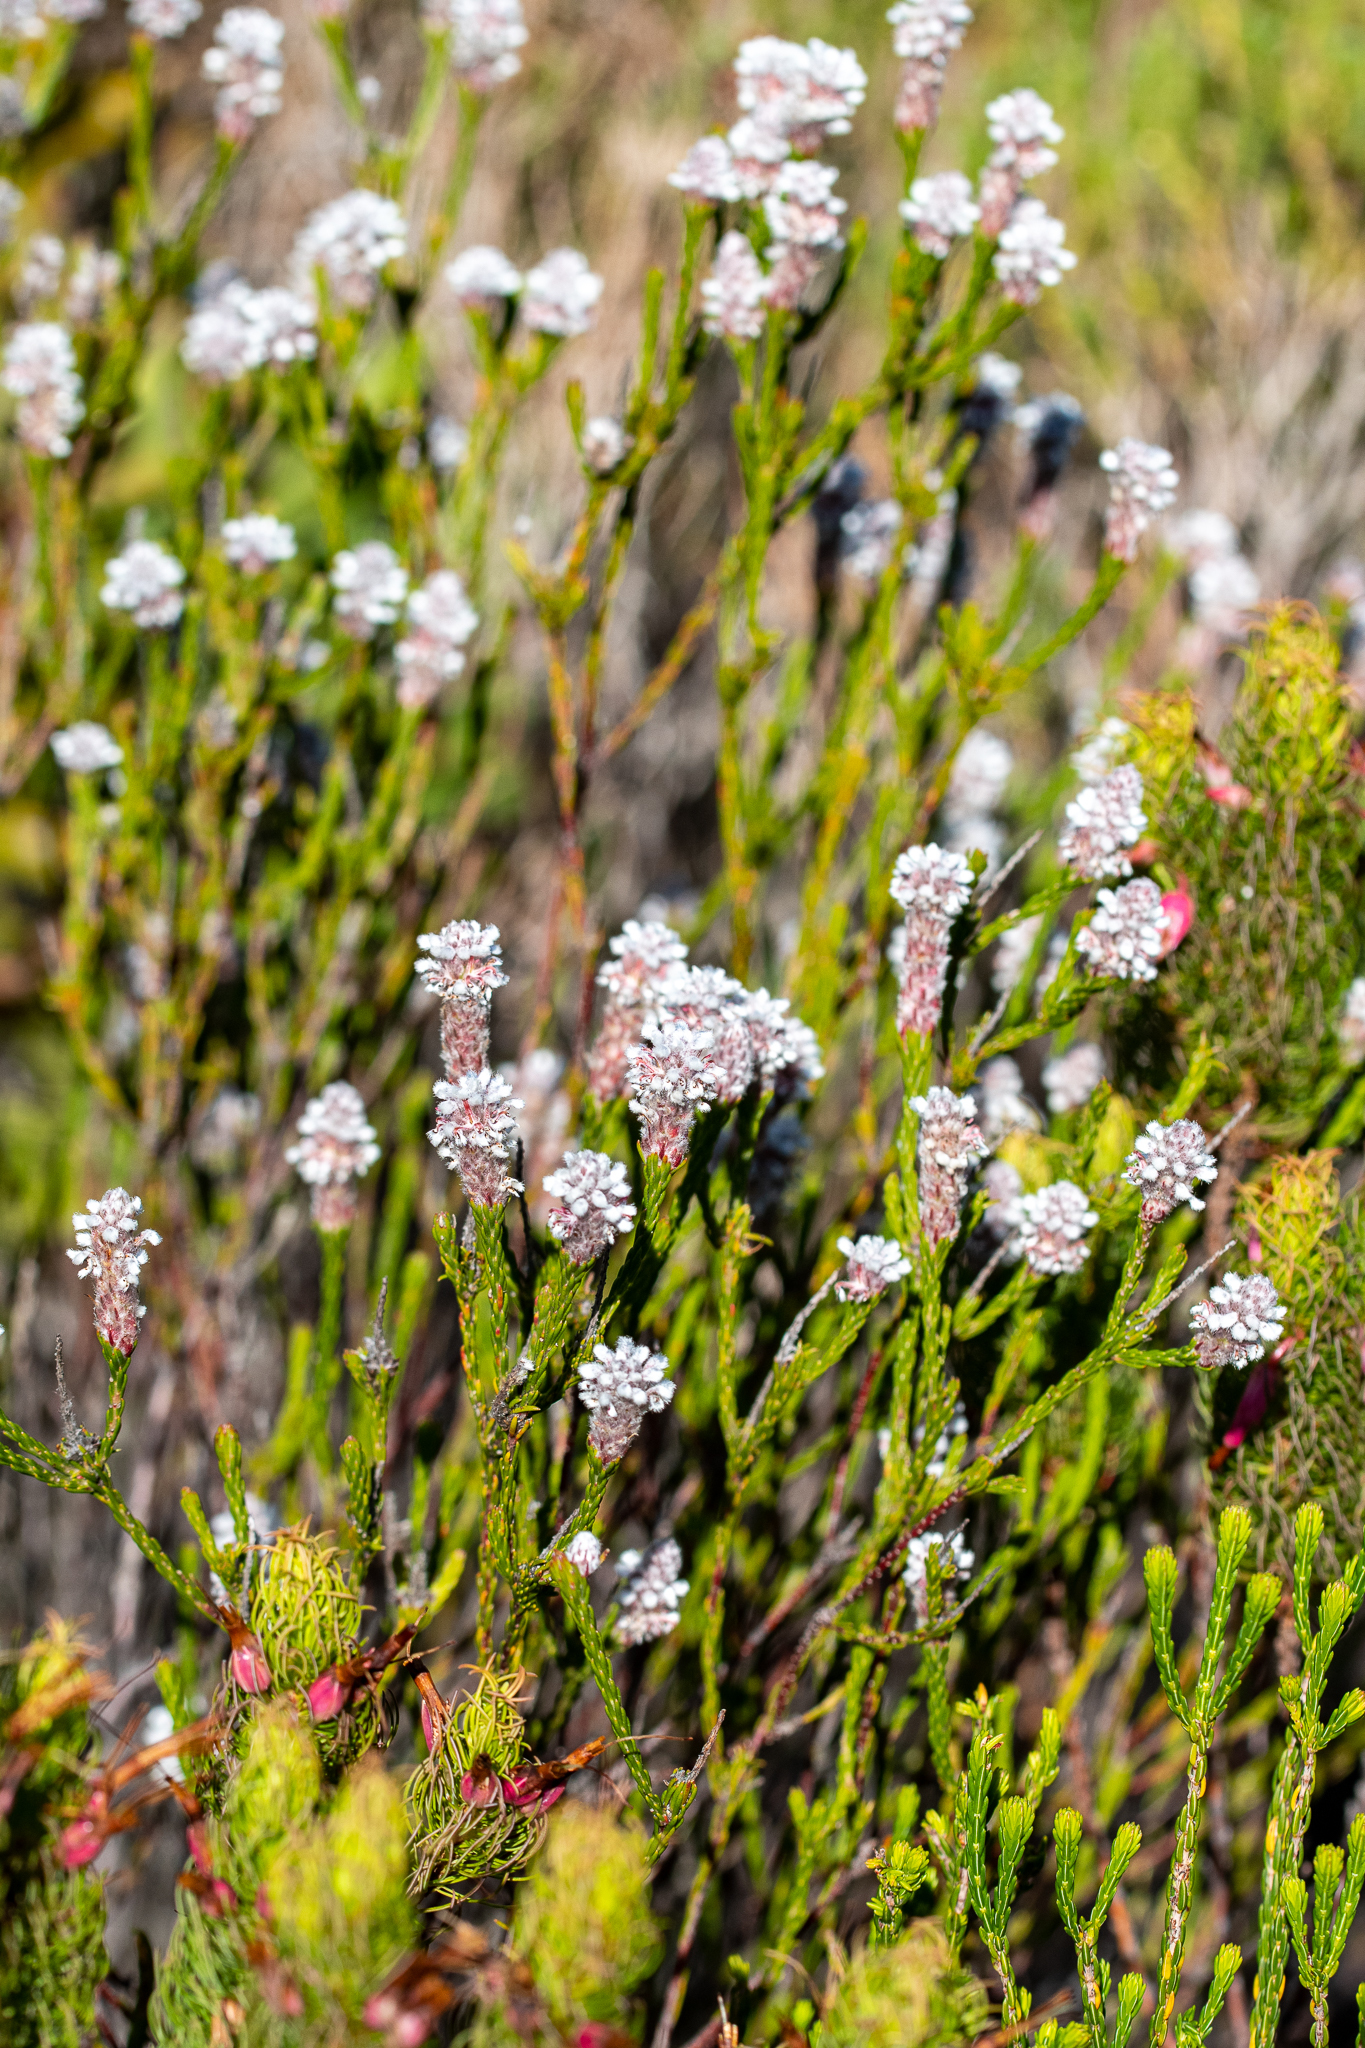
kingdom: Plantae
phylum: Tracheophyta
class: Magnoliopsida
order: Proteales
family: Proteaceae
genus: Spatalla
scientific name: Spatalla ericoides
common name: Erica-leaf spoon
